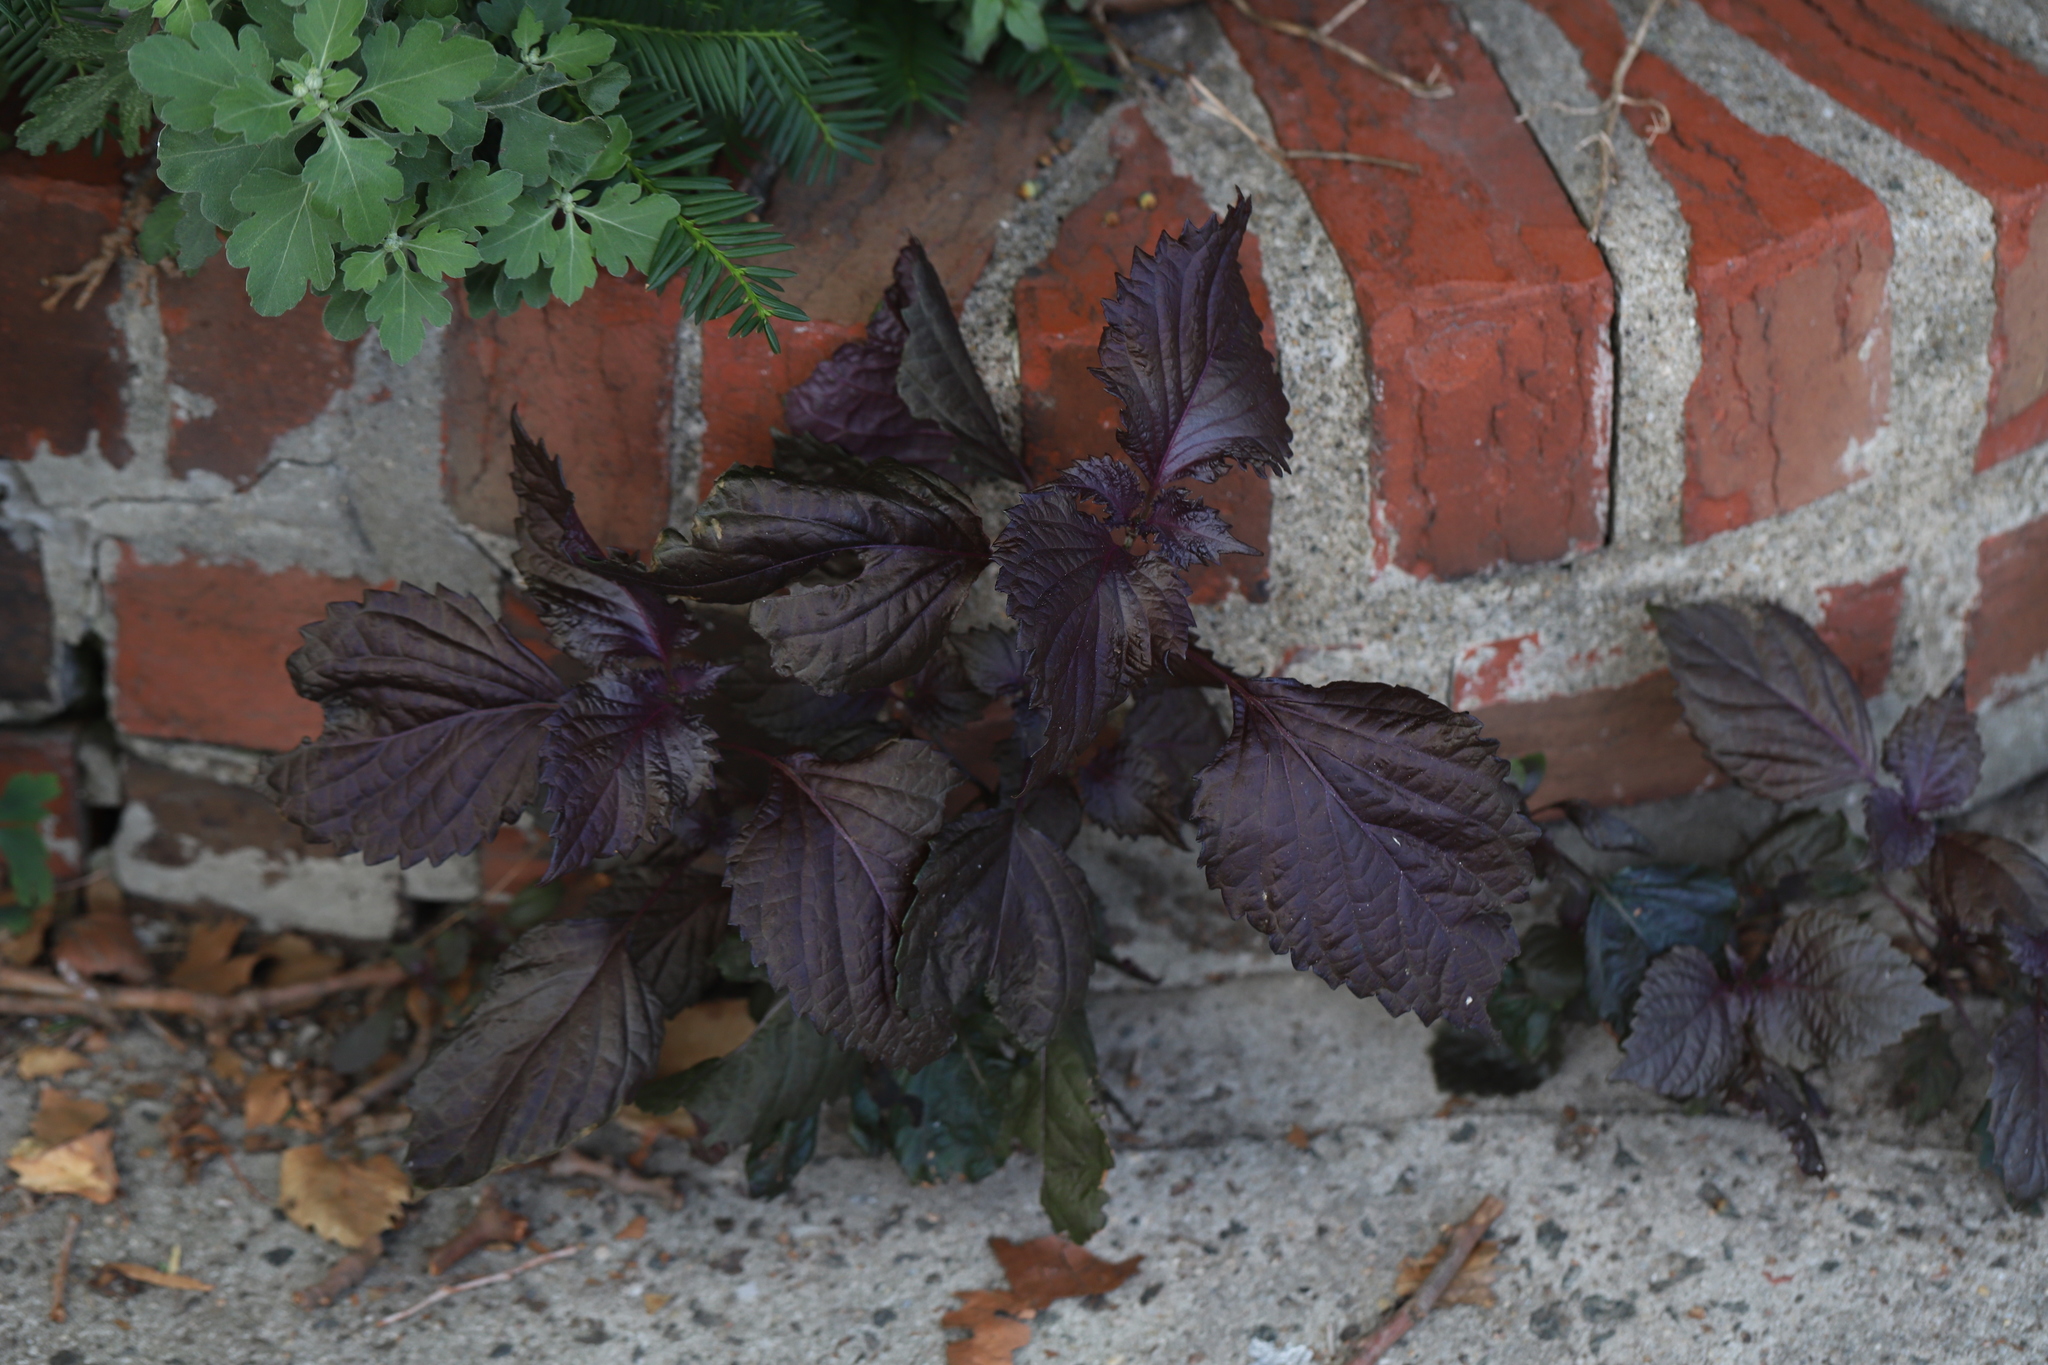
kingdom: Plantae
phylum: Tracheophyta
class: Magnoliopsida
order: Lamiales
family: Lamiaceae
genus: Perilla
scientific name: Perilla frutescens
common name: Perilla
